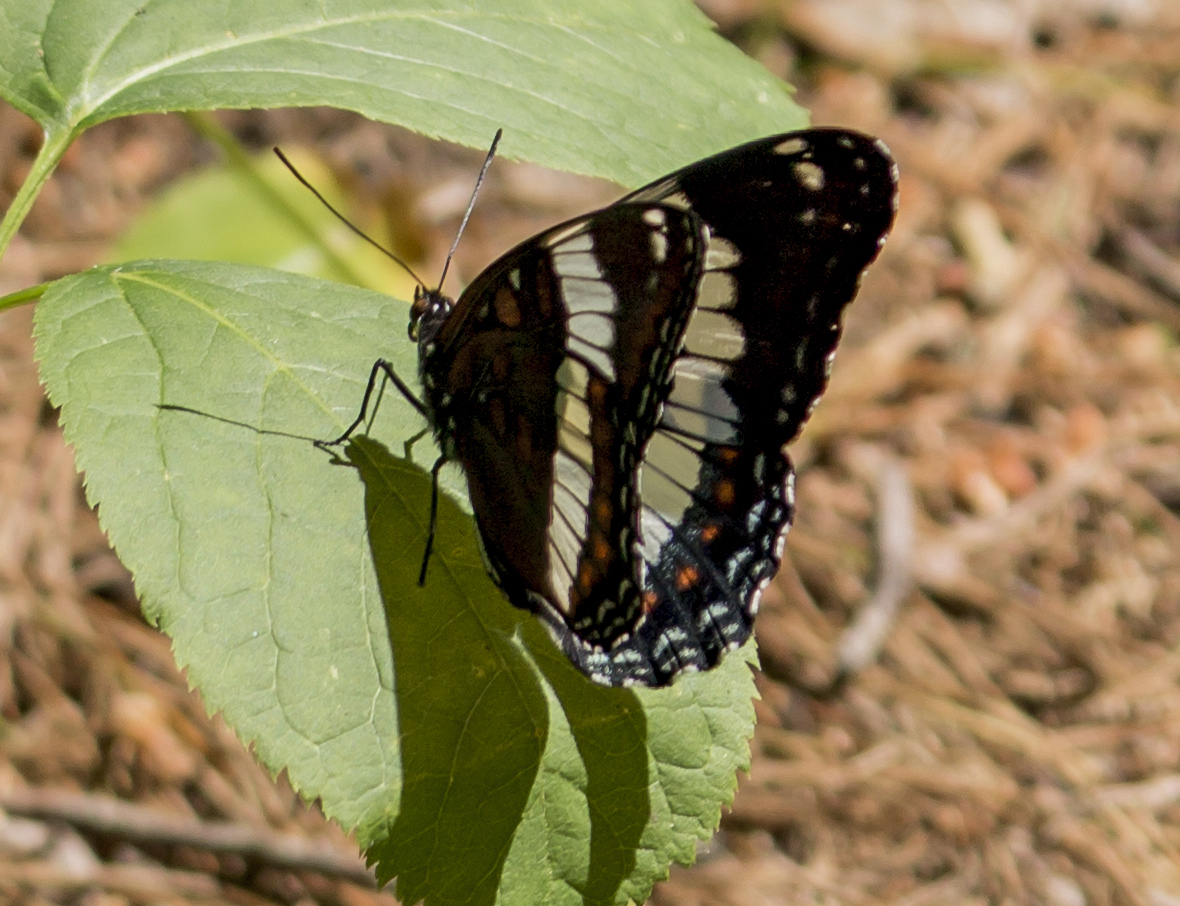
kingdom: Animalia
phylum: Arthropoda
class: Insecta
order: Lepidoptera
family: Nymphalidae
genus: Limenitis
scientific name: Limenitis arthemis
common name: Red-spotted admiral
